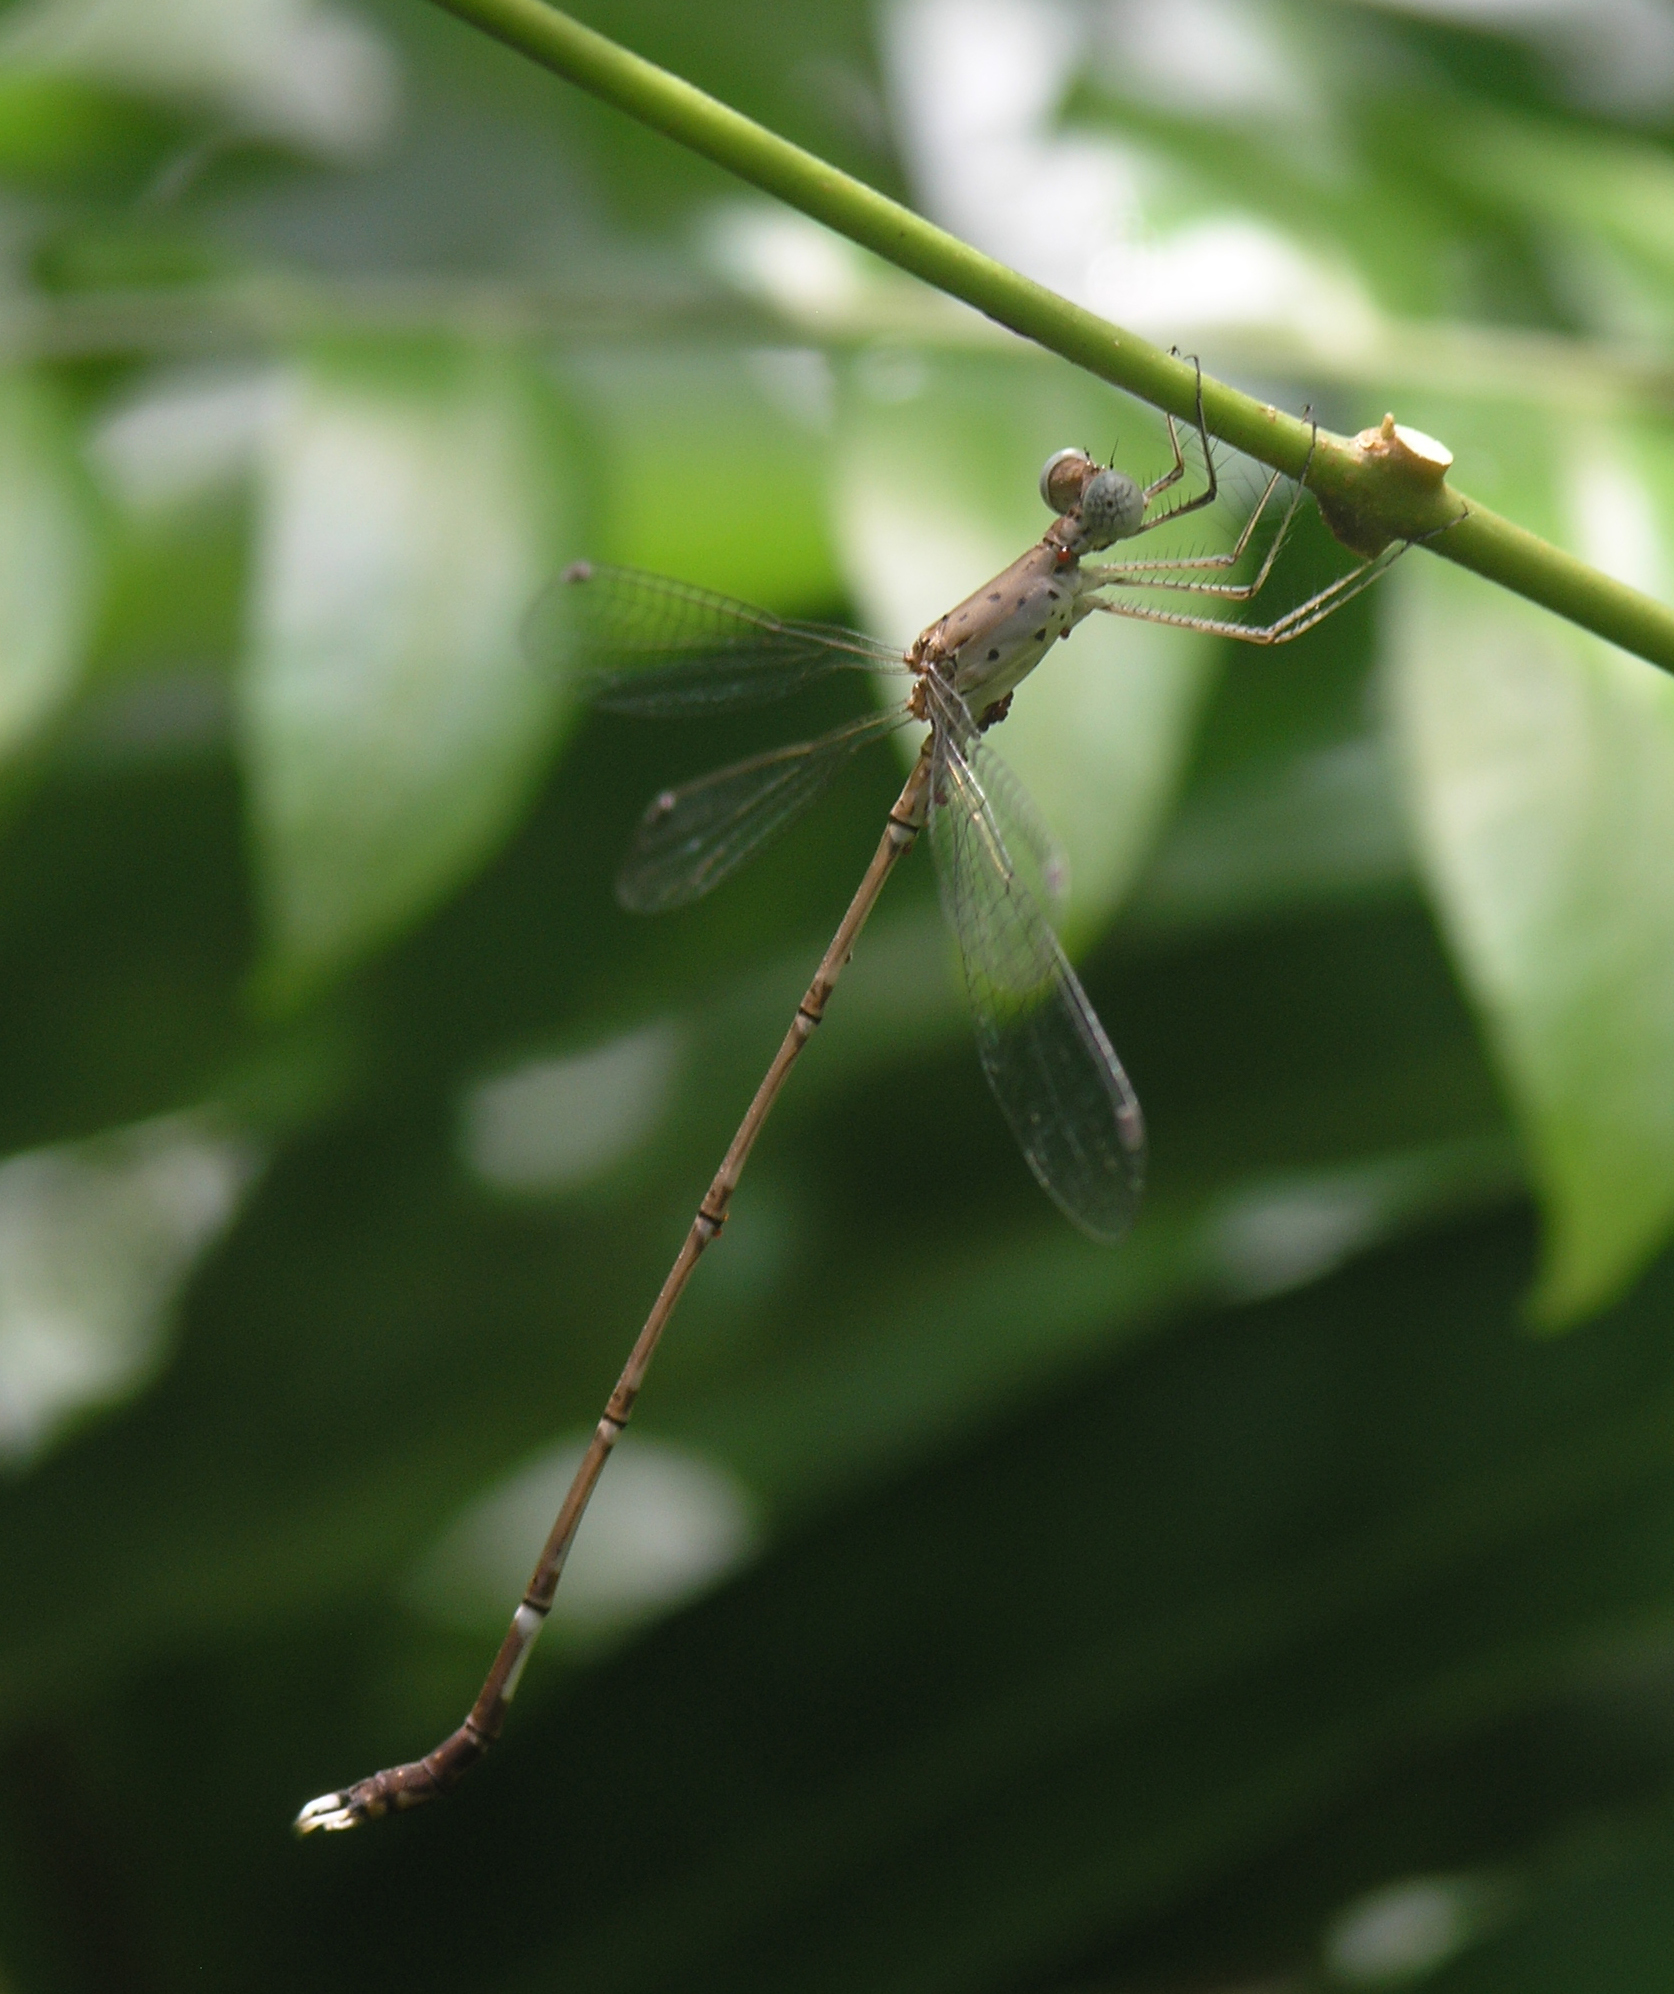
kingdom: Animalia
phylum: Arthropoda
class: Insecta
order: Odonata
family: Lestidae
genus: Platylestes
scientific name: Platylestes platystylus
